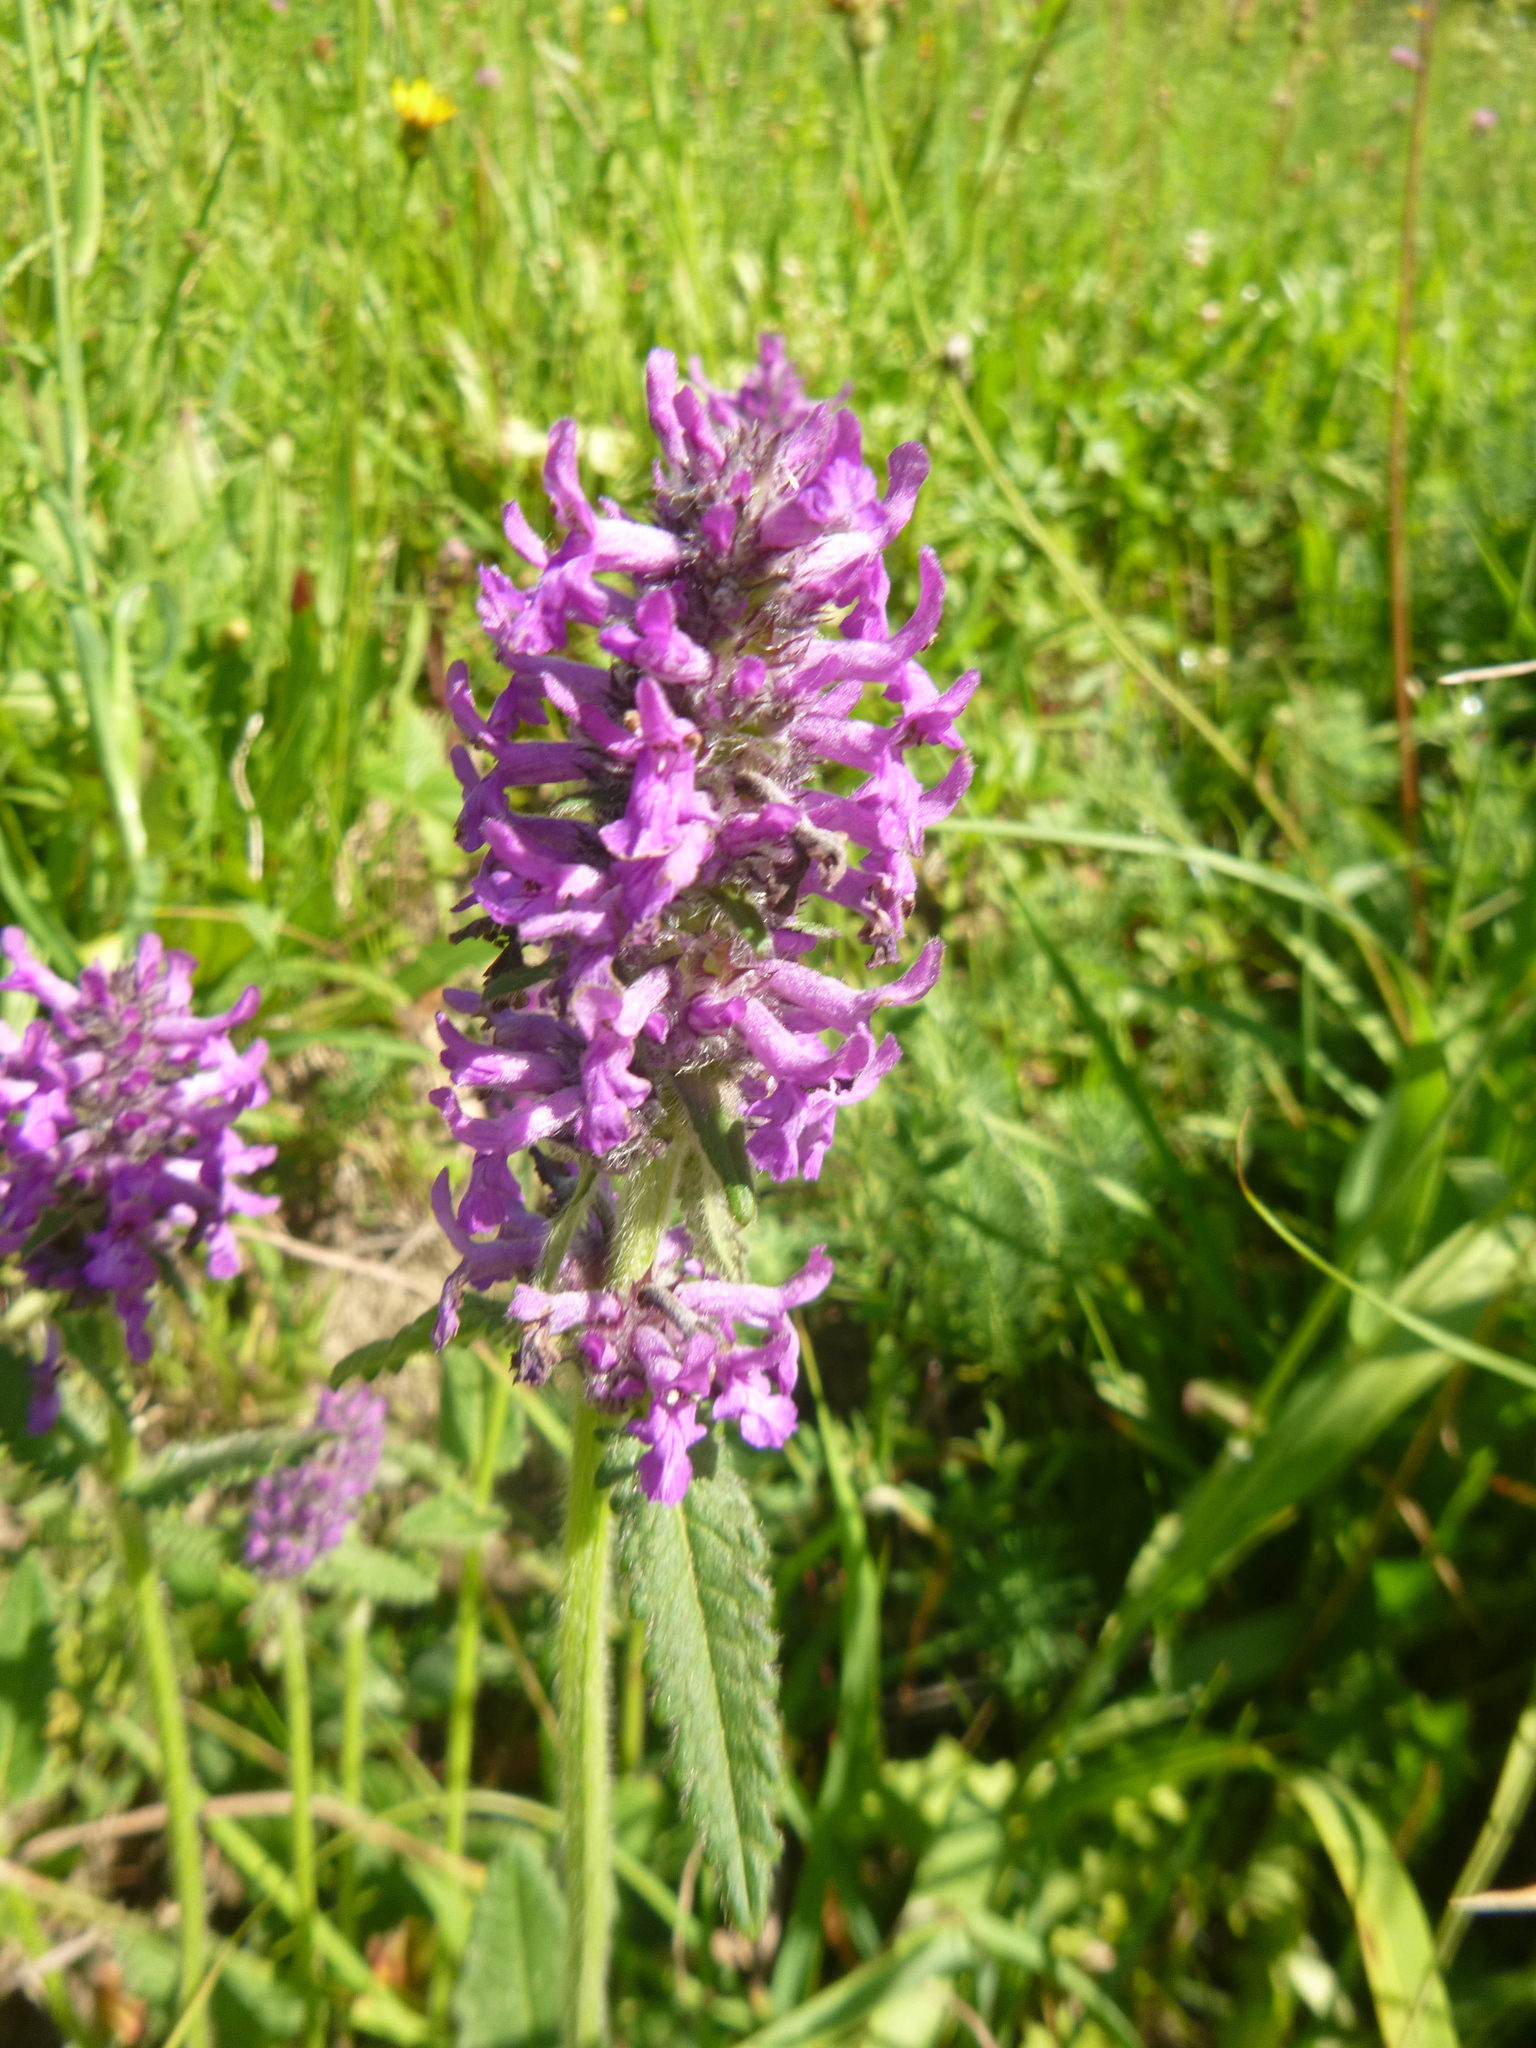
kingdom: Plantae
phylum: Tracheophyta
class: Magnoliopsida
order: Lamiales
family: Lamiaceae
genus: Betonica
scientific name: Betonica officinalis
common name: Bishop's-wort
